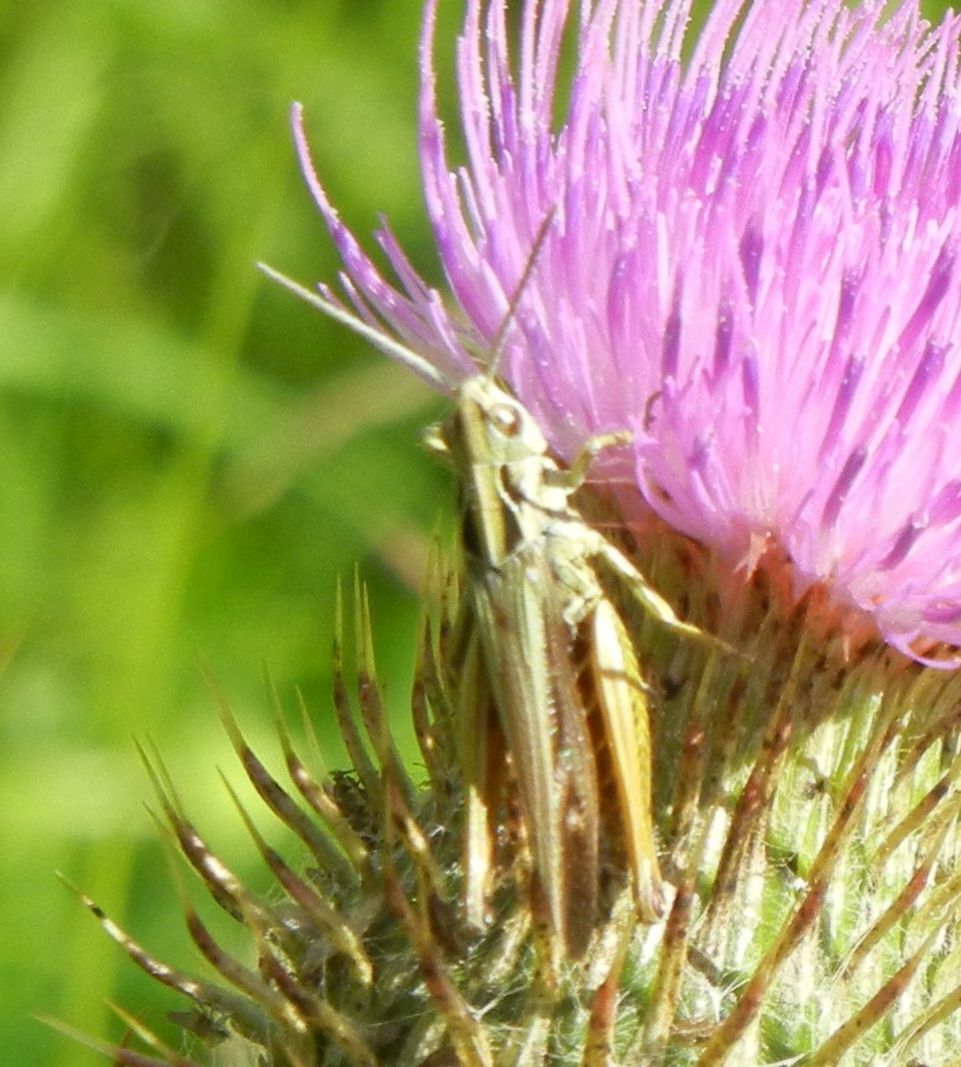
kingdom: Animalia
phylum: Arthropoda
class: Insecta
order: Orthoptera
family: Acrididae
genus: Omocestus
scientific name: Omocestus viridulus
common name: Common green grasshopper
